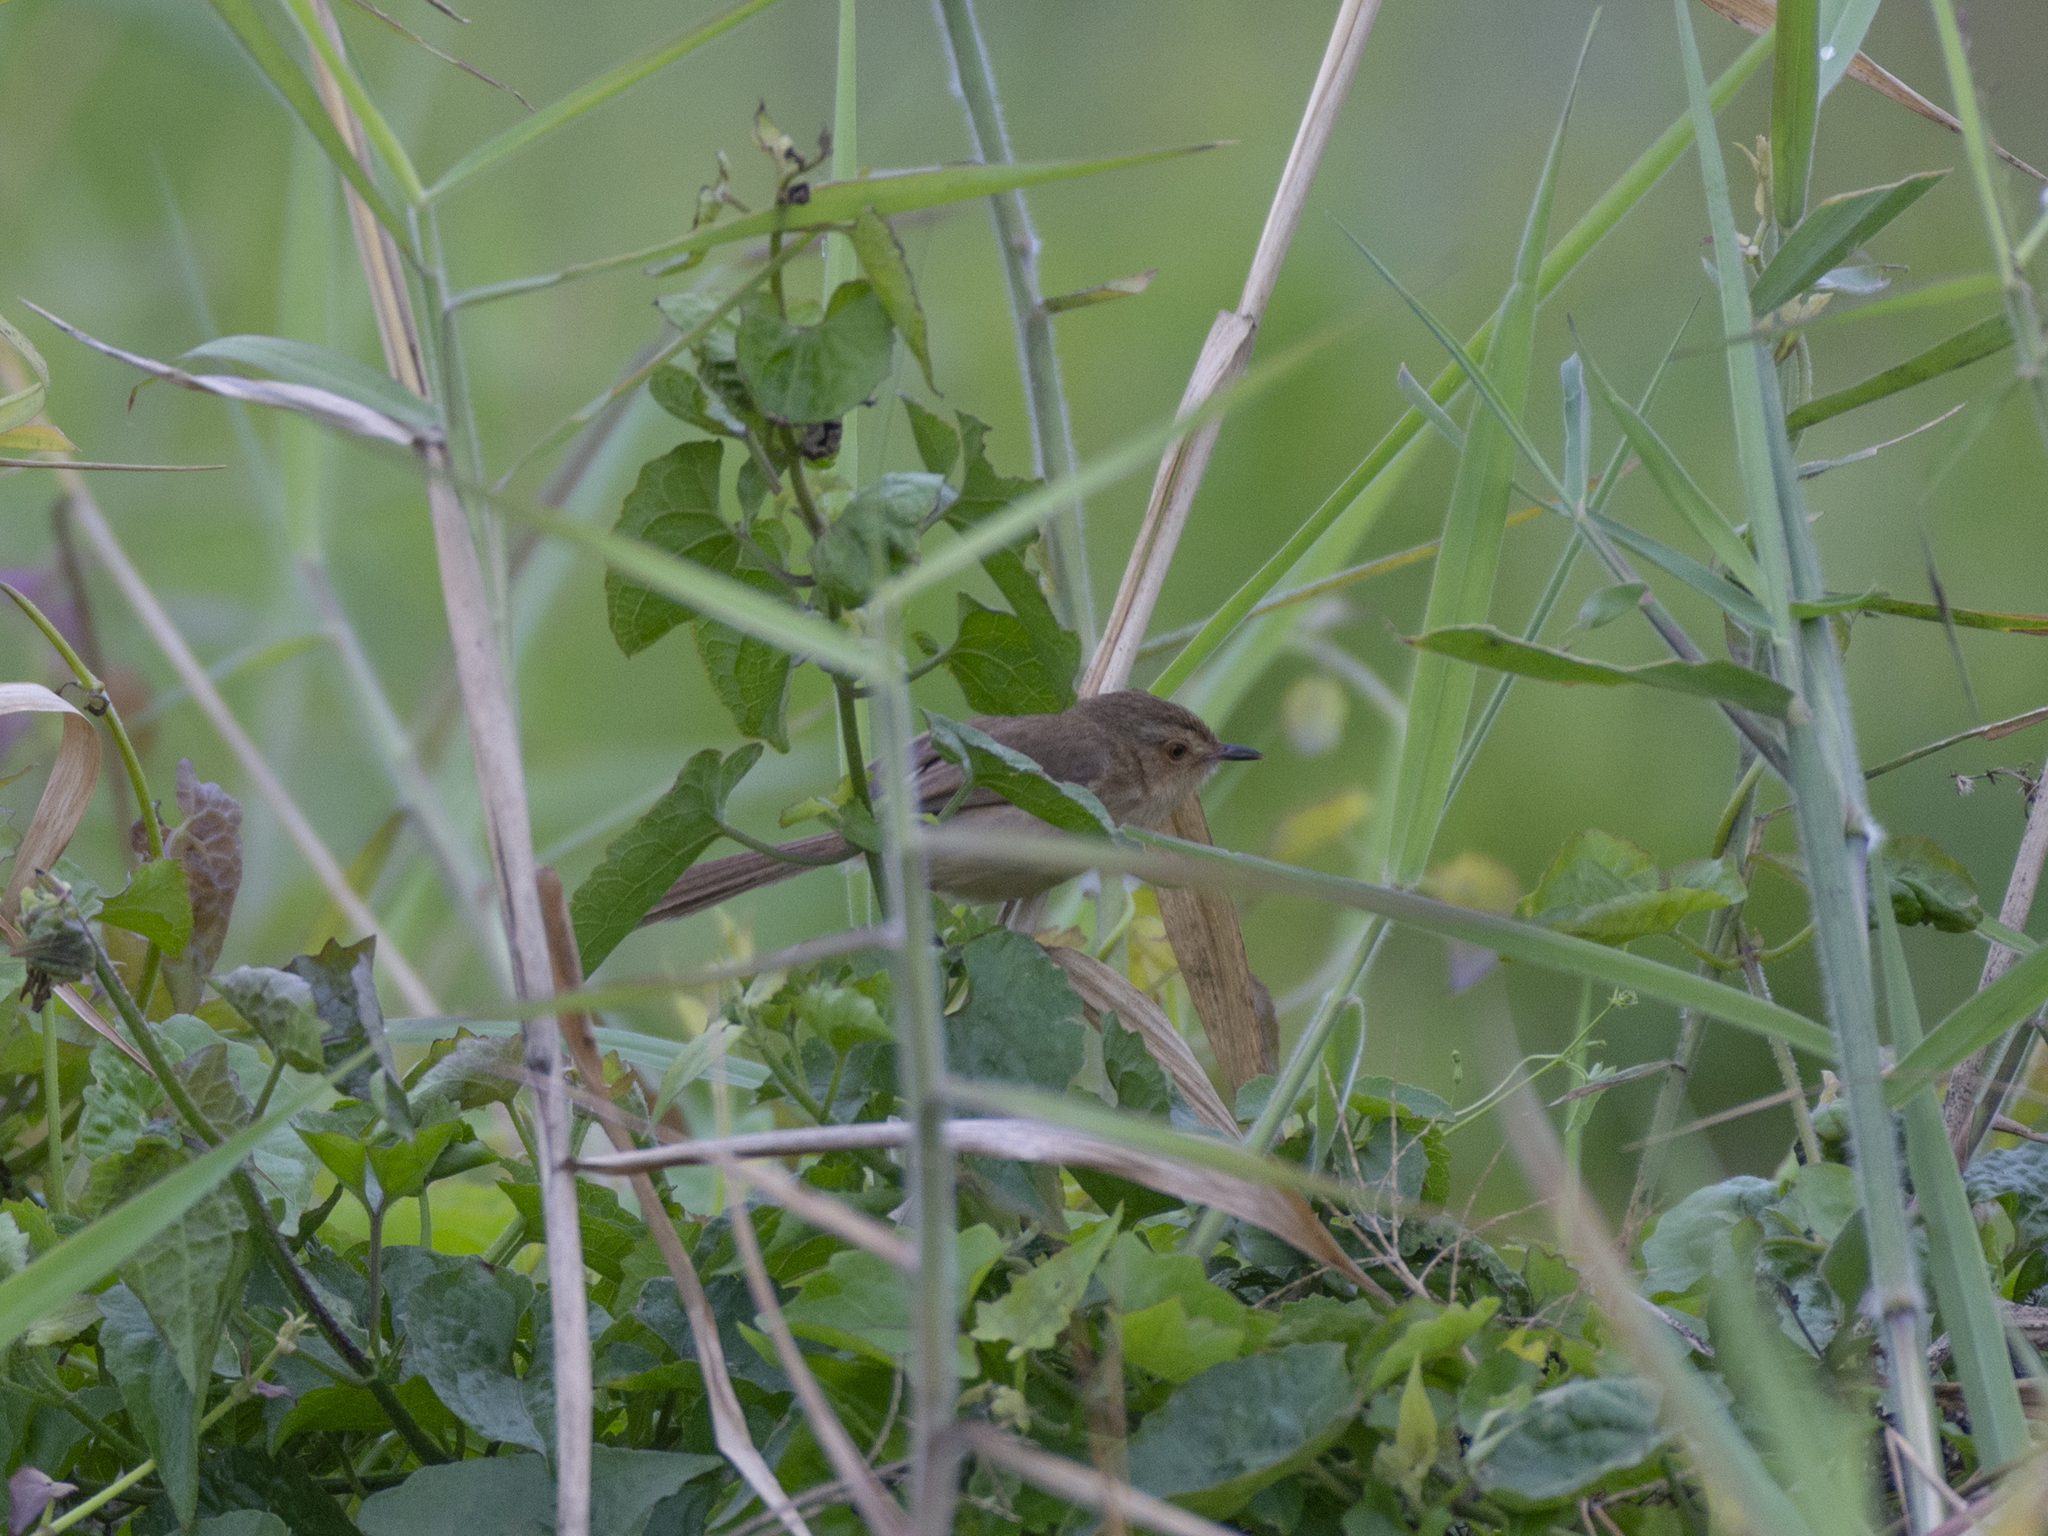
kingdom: Animalia
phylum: Chordata
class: Aves
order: Passeriformes
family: Cisticolidae
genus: Prinia
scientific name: Prinia inornata
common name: Plain prinia
